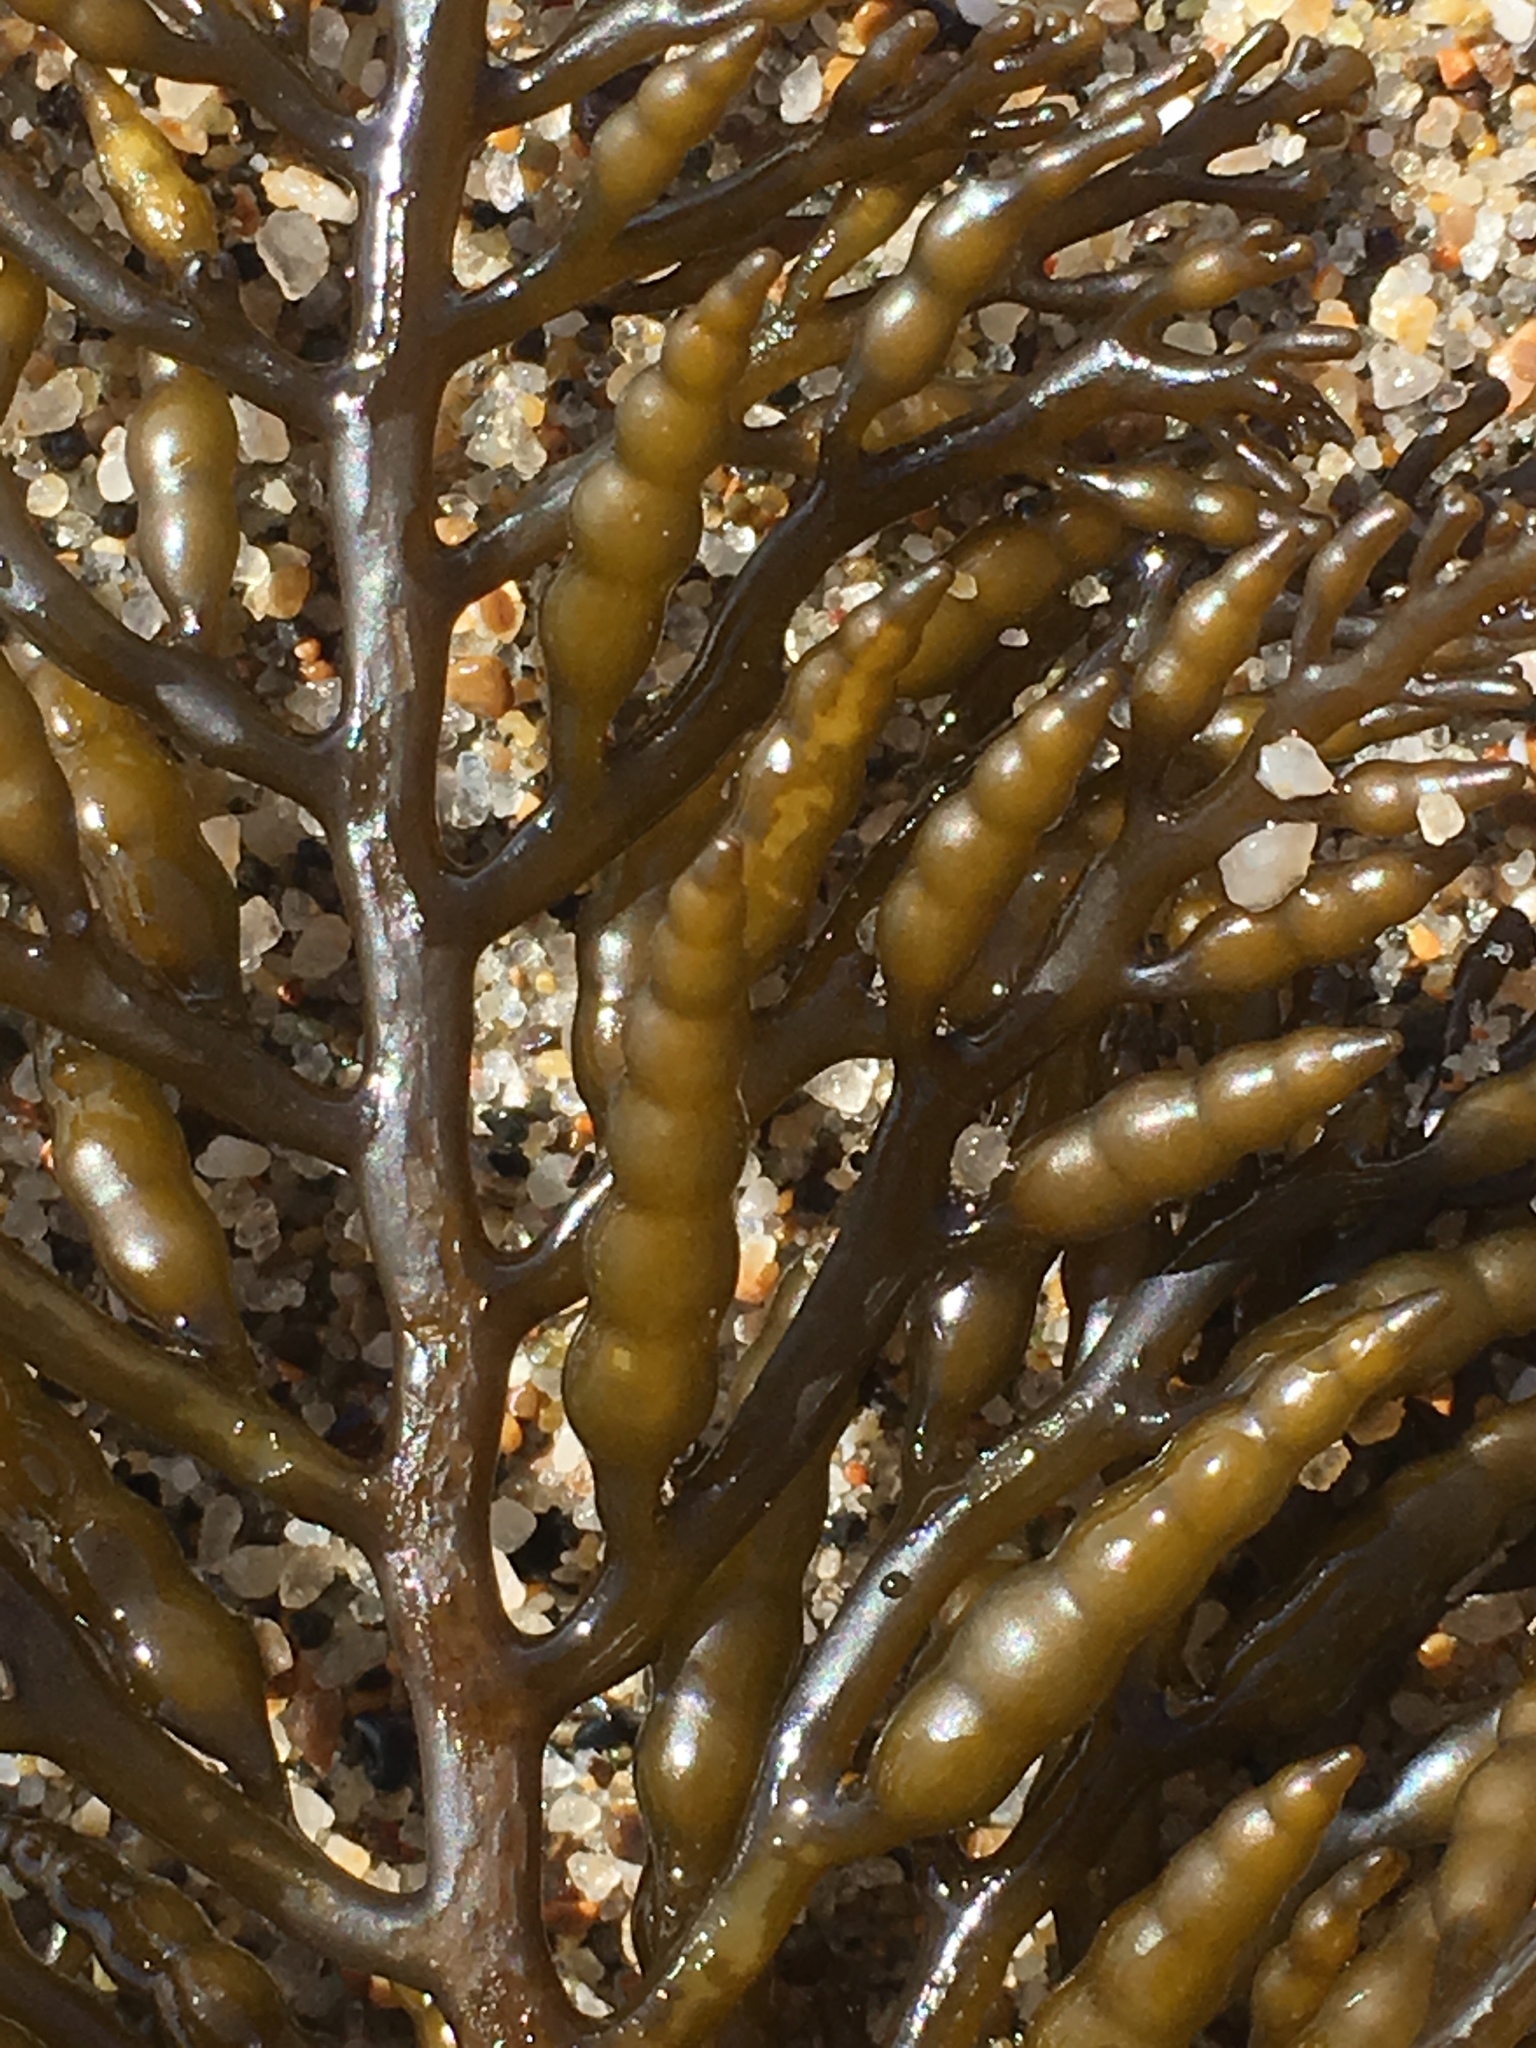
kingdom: Chromista
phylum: Ochrophyta
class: Phaeophyceae
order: Fucales
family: Sargassaceae
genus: Stephanocystis
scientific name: Stephanocystis
